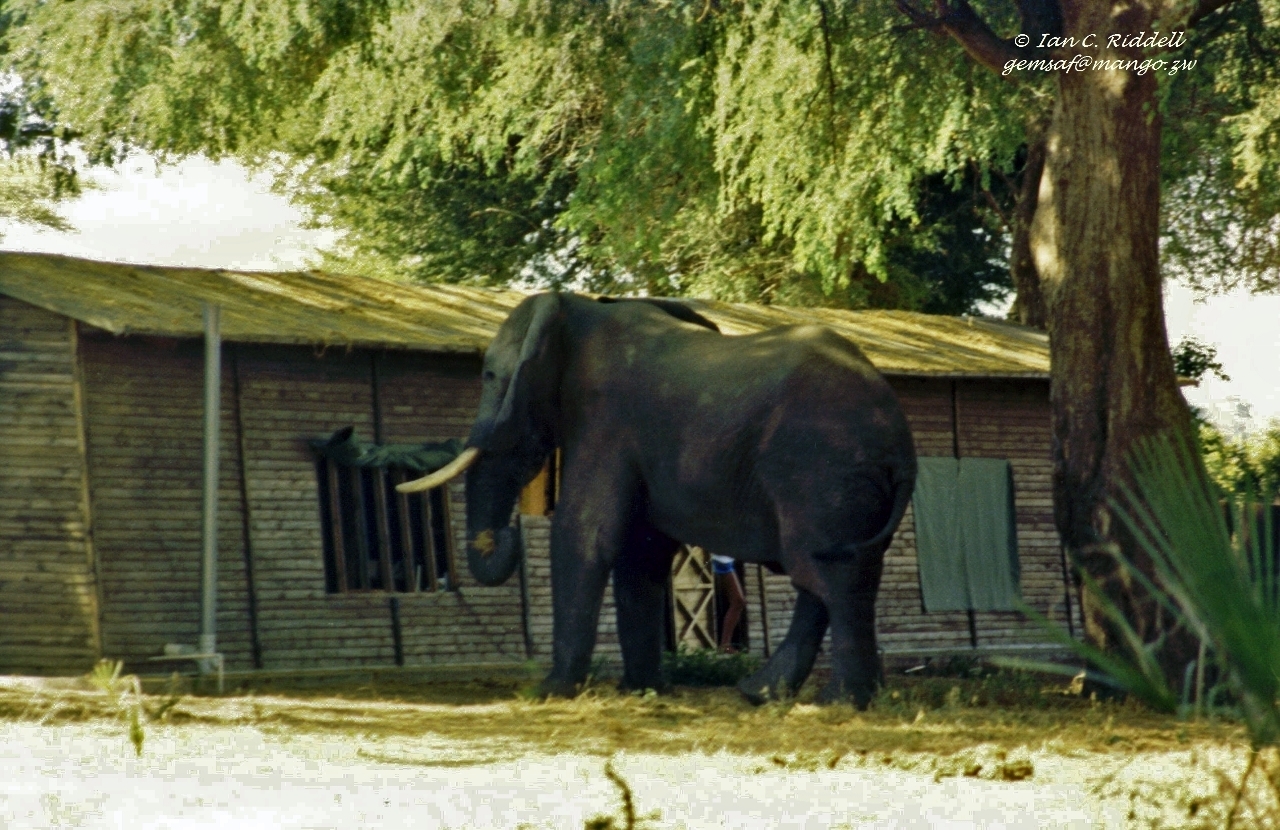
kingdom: Animalia
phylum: Chordata
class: Mammalia
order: Proboscidea
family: Elephantidae
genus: Loxodonta
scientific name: Loxodonta africana
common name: African elephant
